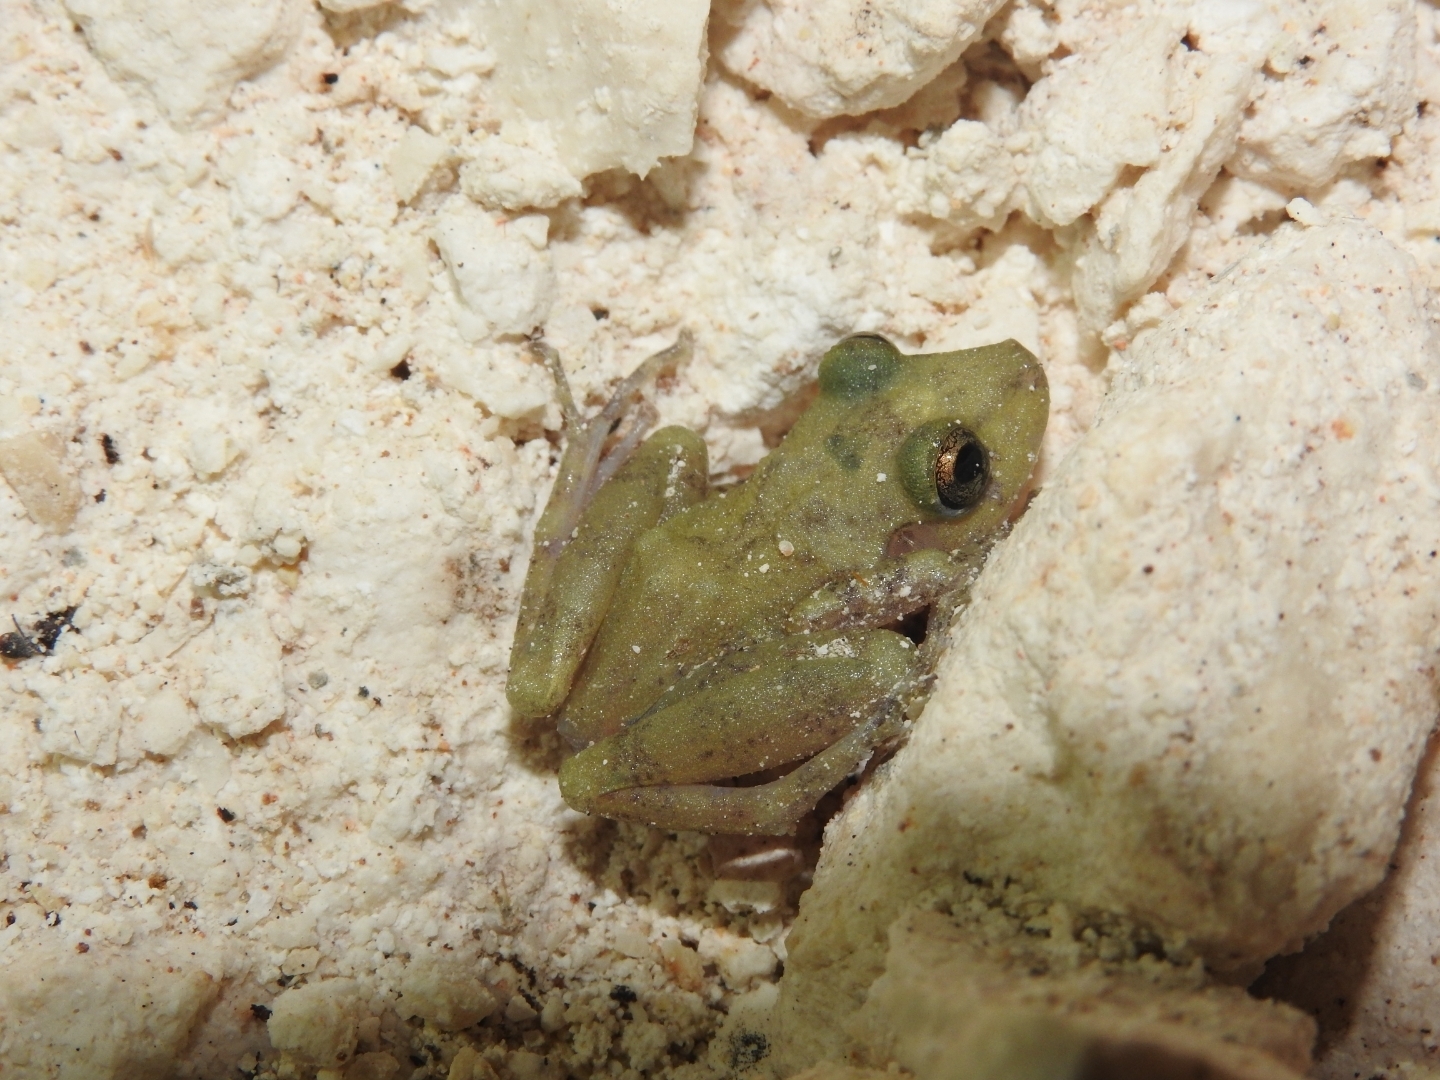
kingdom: Animalia
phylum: Chordata
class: Amphibia
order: Anura
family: Craugastoridae
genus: Craugastor
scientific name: Craugastor yucatanensis
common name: Yucatan rainfrog
